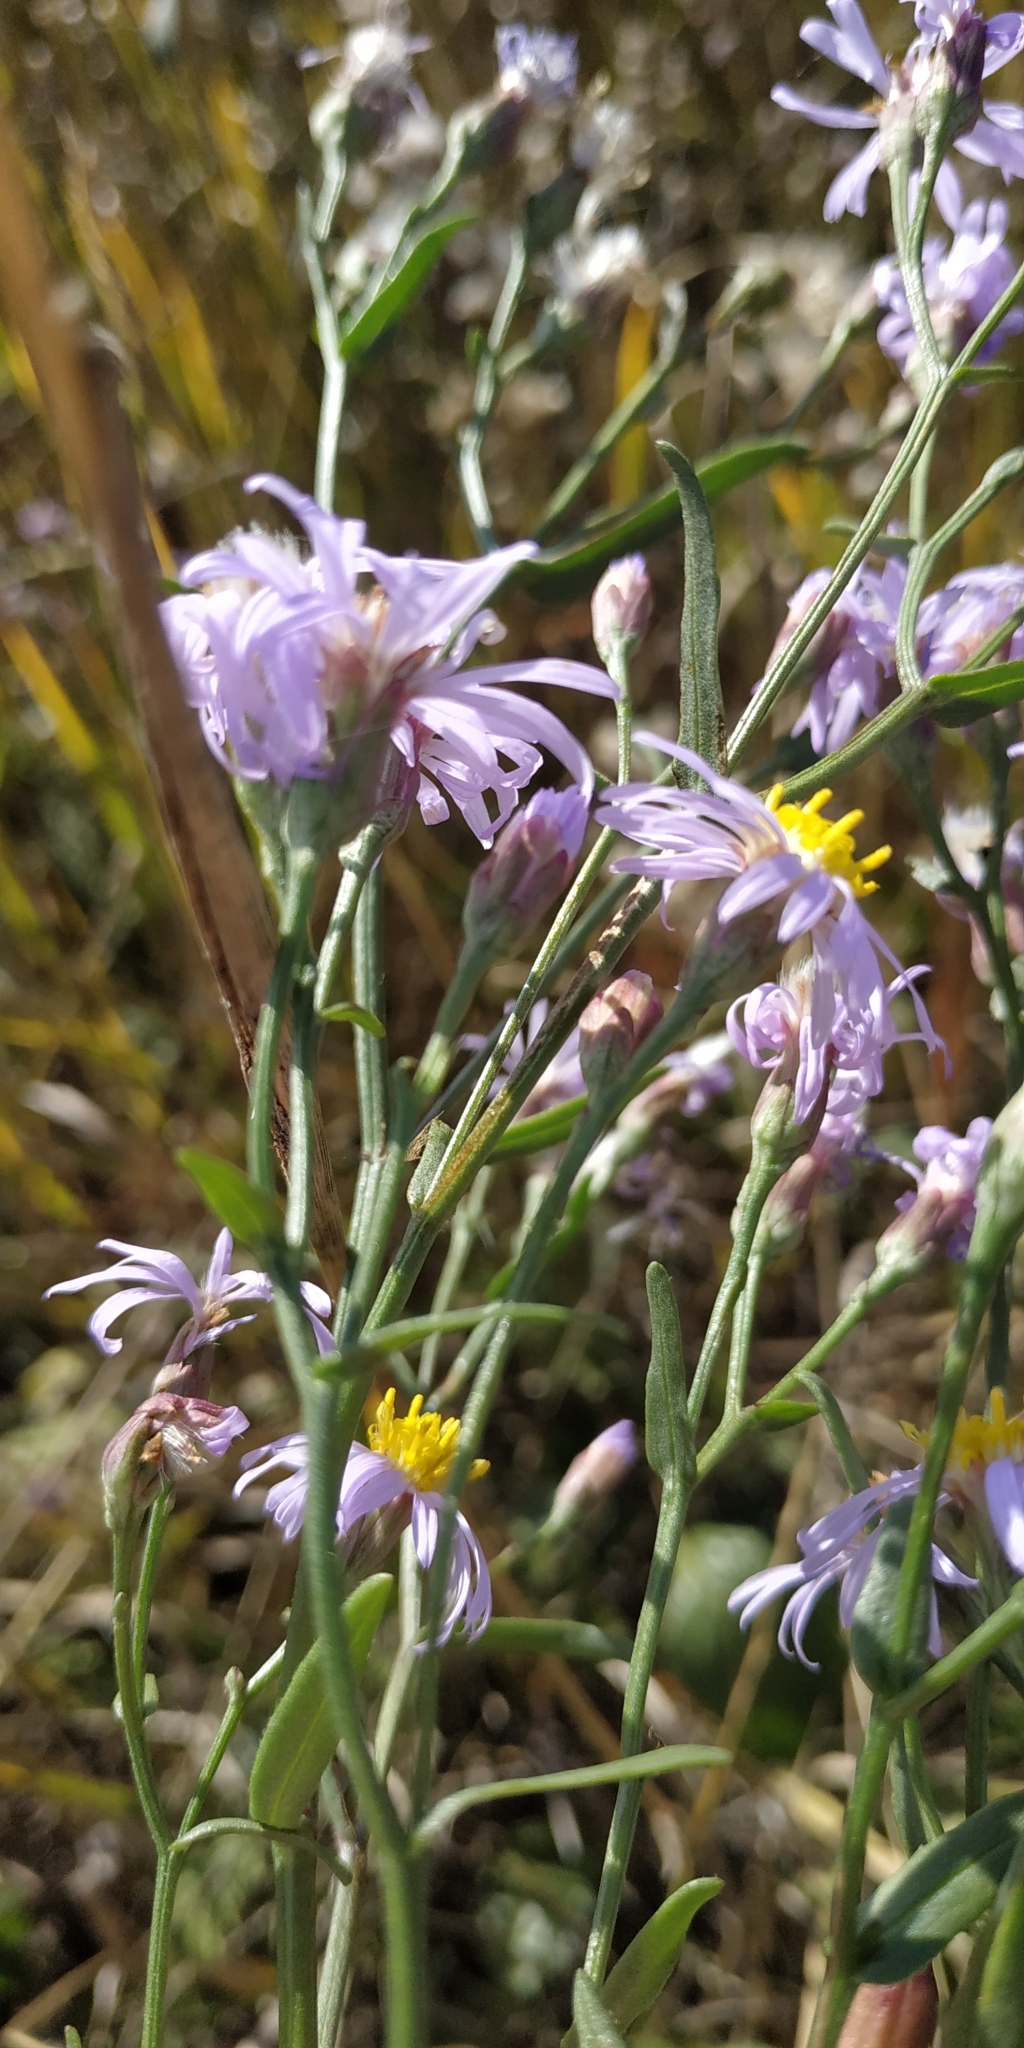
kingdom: Plantae
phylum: Tracheophyta
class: Magnoliopsida
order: Asterales
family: Asteraceae
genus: Tripolium
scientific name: Tripolium pannonicum
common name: Sea aster
